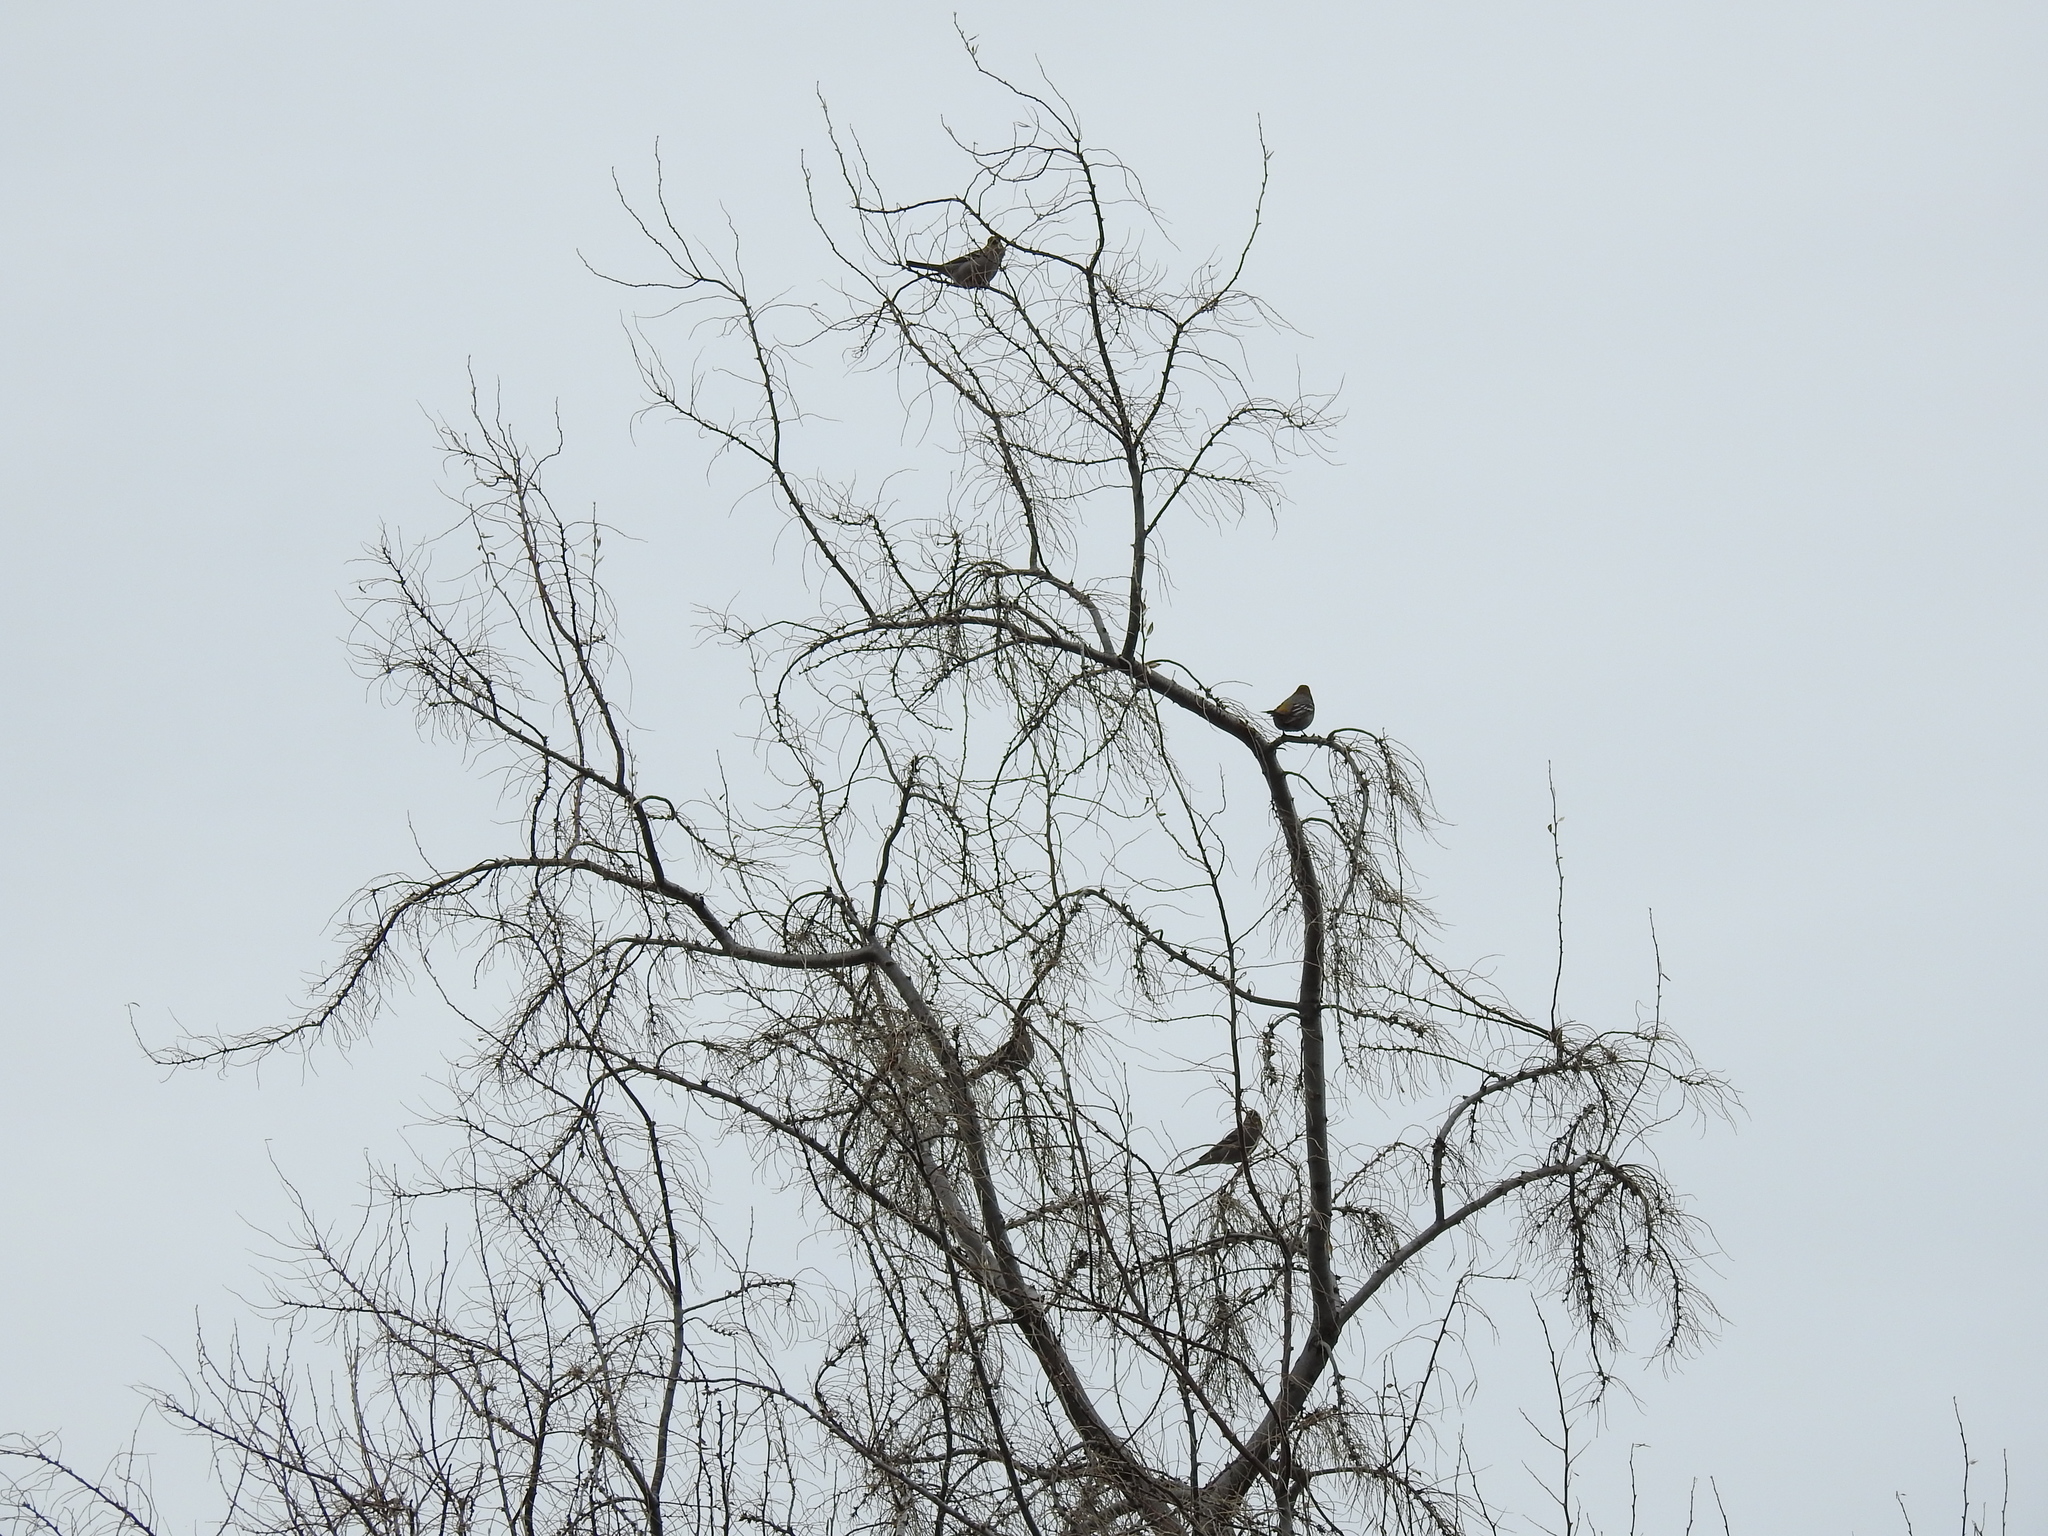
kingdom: Animalia
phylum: Chordata
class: Aves
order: Passeriformes
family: Fringillidae
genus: Pinicola
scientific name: Pinicola enucleator
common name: Pine grosbeak
